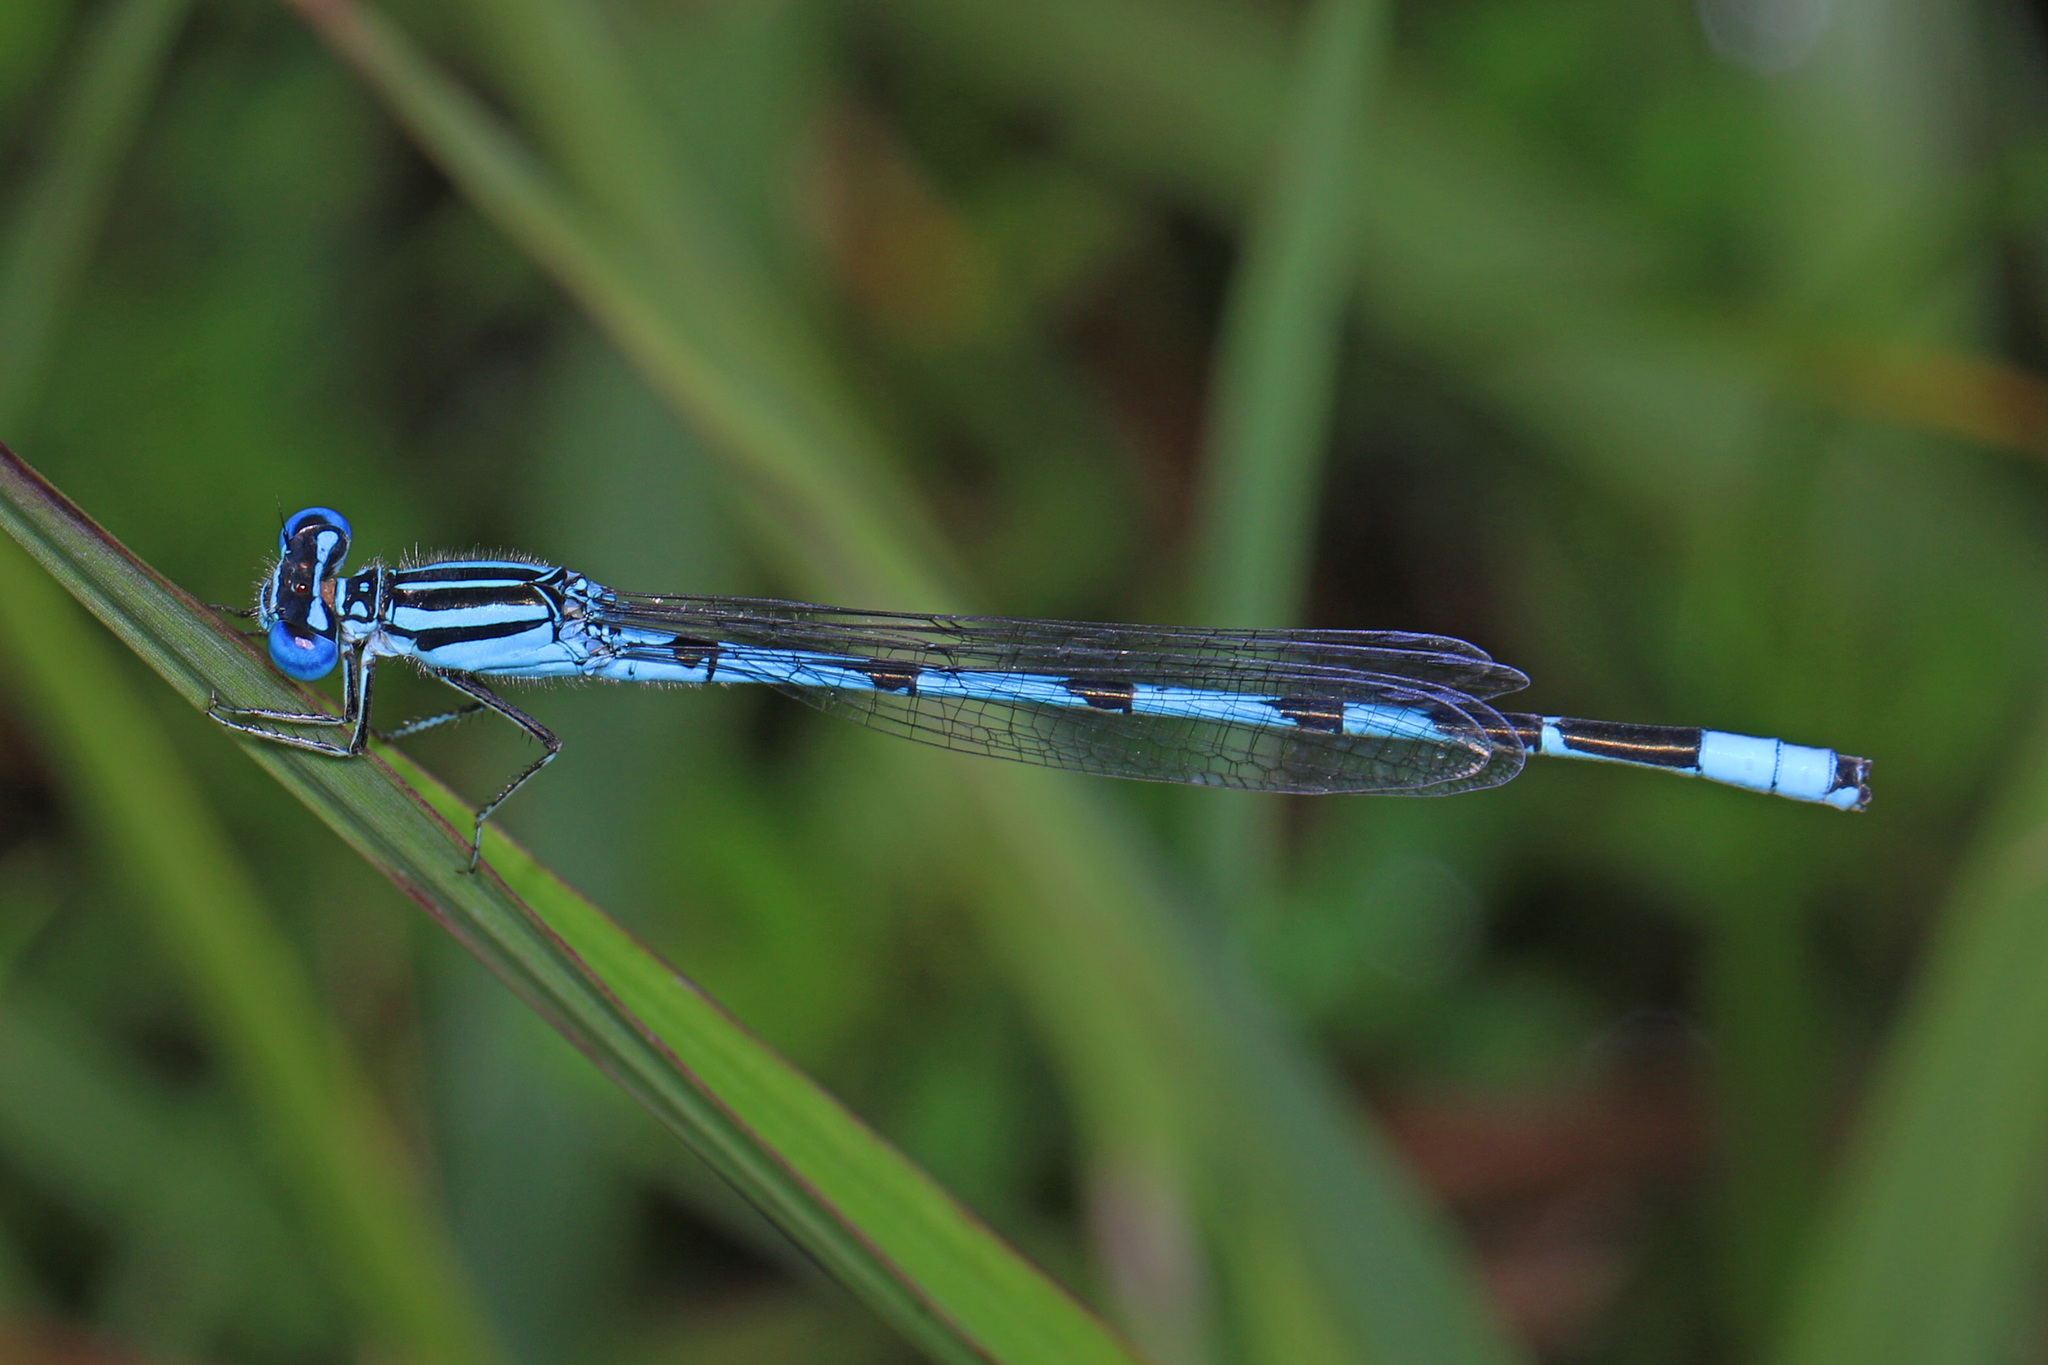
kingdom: Animalia
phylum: Arthropoda
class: Insecta
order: Odonata
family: Coenagrionidae
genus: Enallagma
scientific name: Enallagma durum
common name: Big bluet
